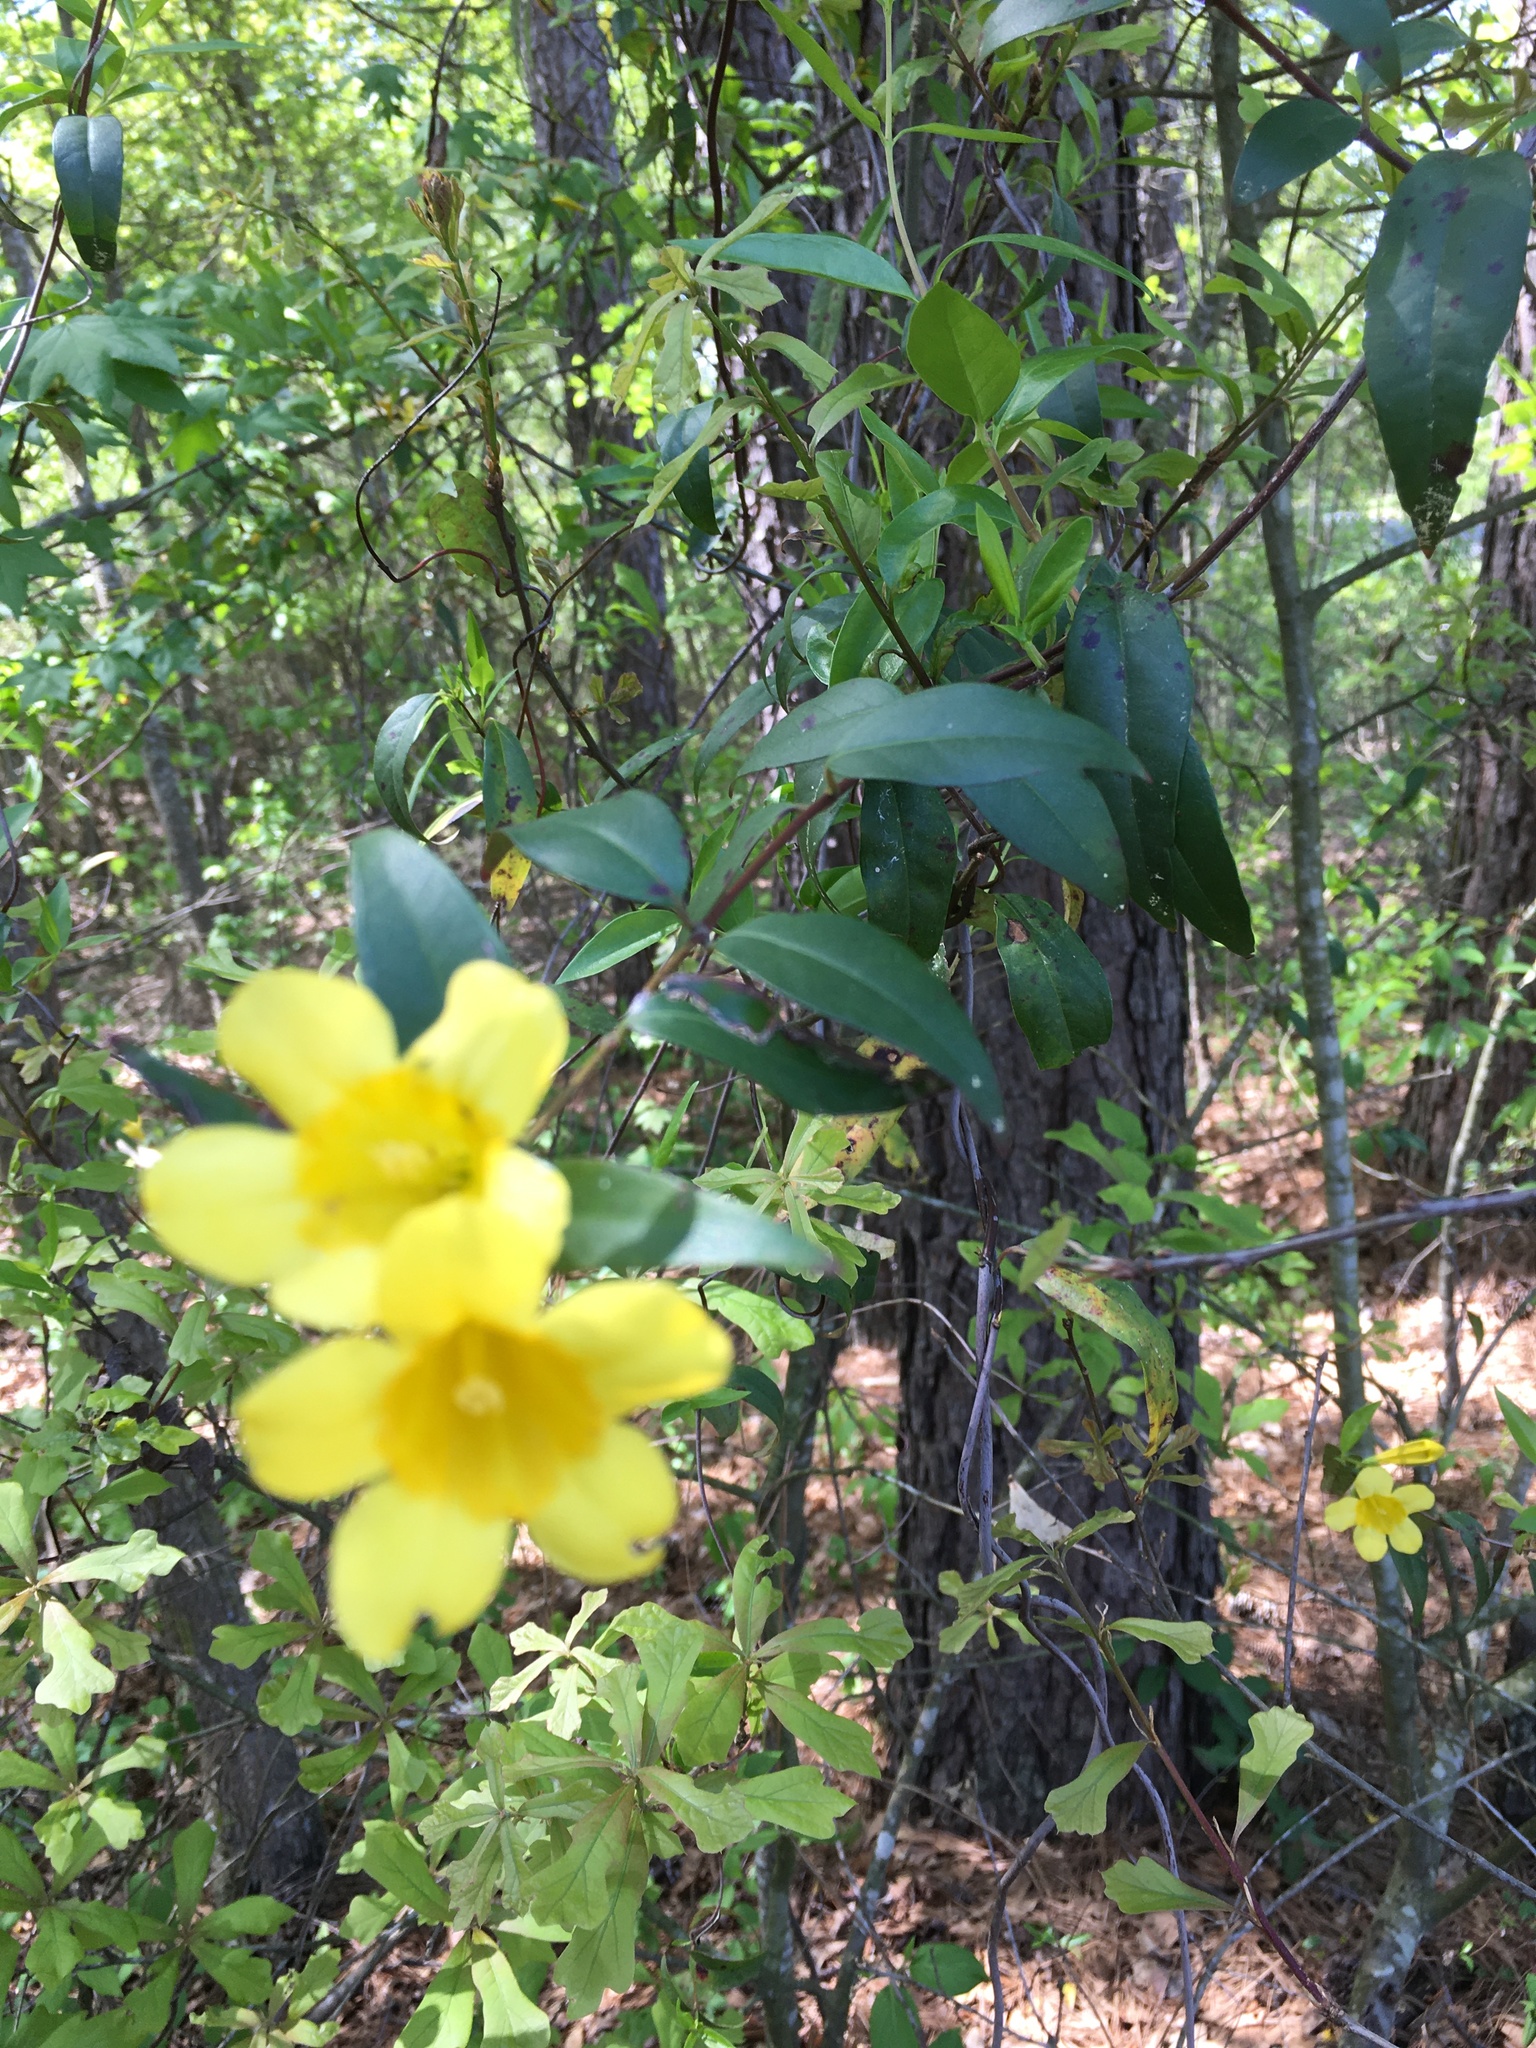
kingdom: Plantae
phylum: Tracheophyta
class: Magnoliopsida
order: Gentianales
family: Gelsemiaceae
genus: Gelsemium
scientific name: Gelsemium sempervirens
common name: Carolina-jasmine
